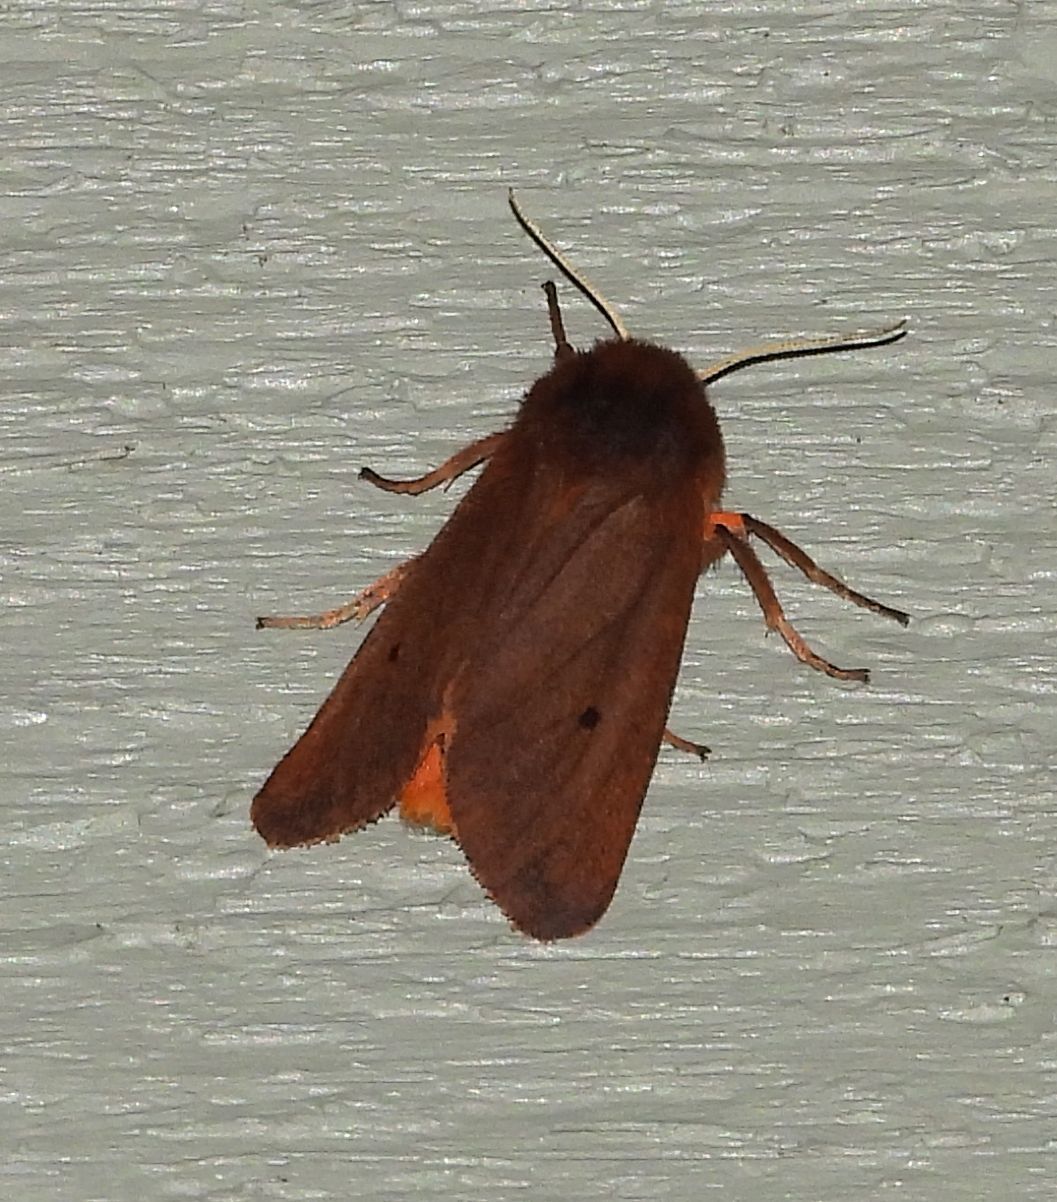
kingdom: Animalia
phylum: Arthropoda
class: Insecta
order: Lepidoptera
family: Erebidae
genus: Phragmatobia
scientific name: Phragmatobia fuliginosa
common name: Ruby tiger
